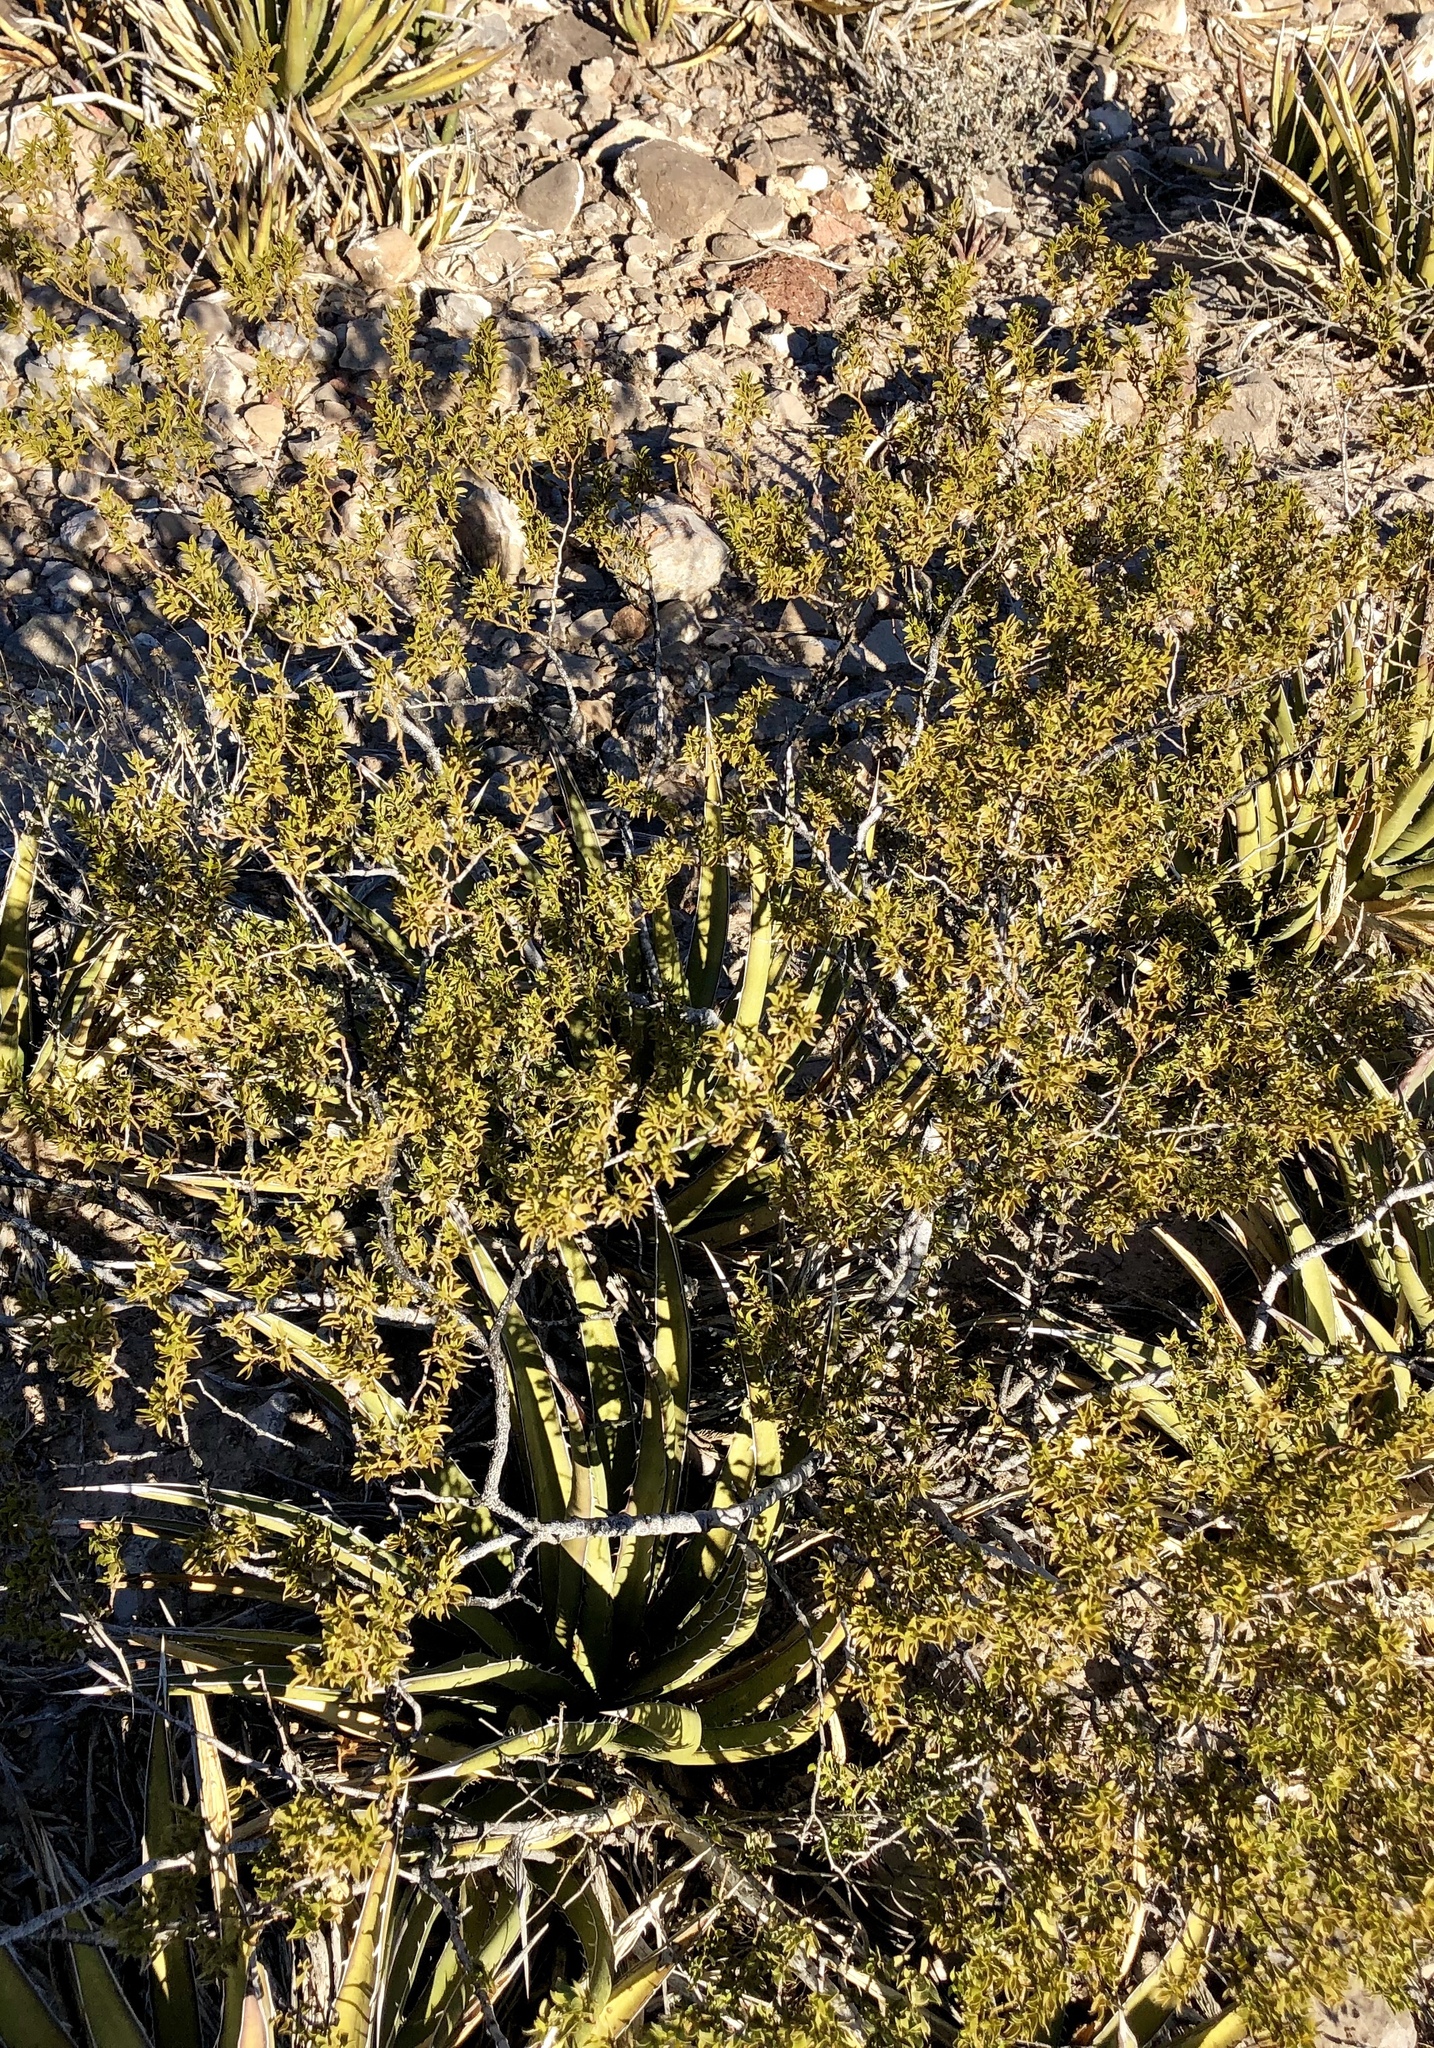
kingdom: Plantae
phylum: Tracheophyta
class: Magnoliopsida
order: Zygophyllales
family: Zygophyllaceae
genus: Larrea
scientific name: Larrea tridentata
